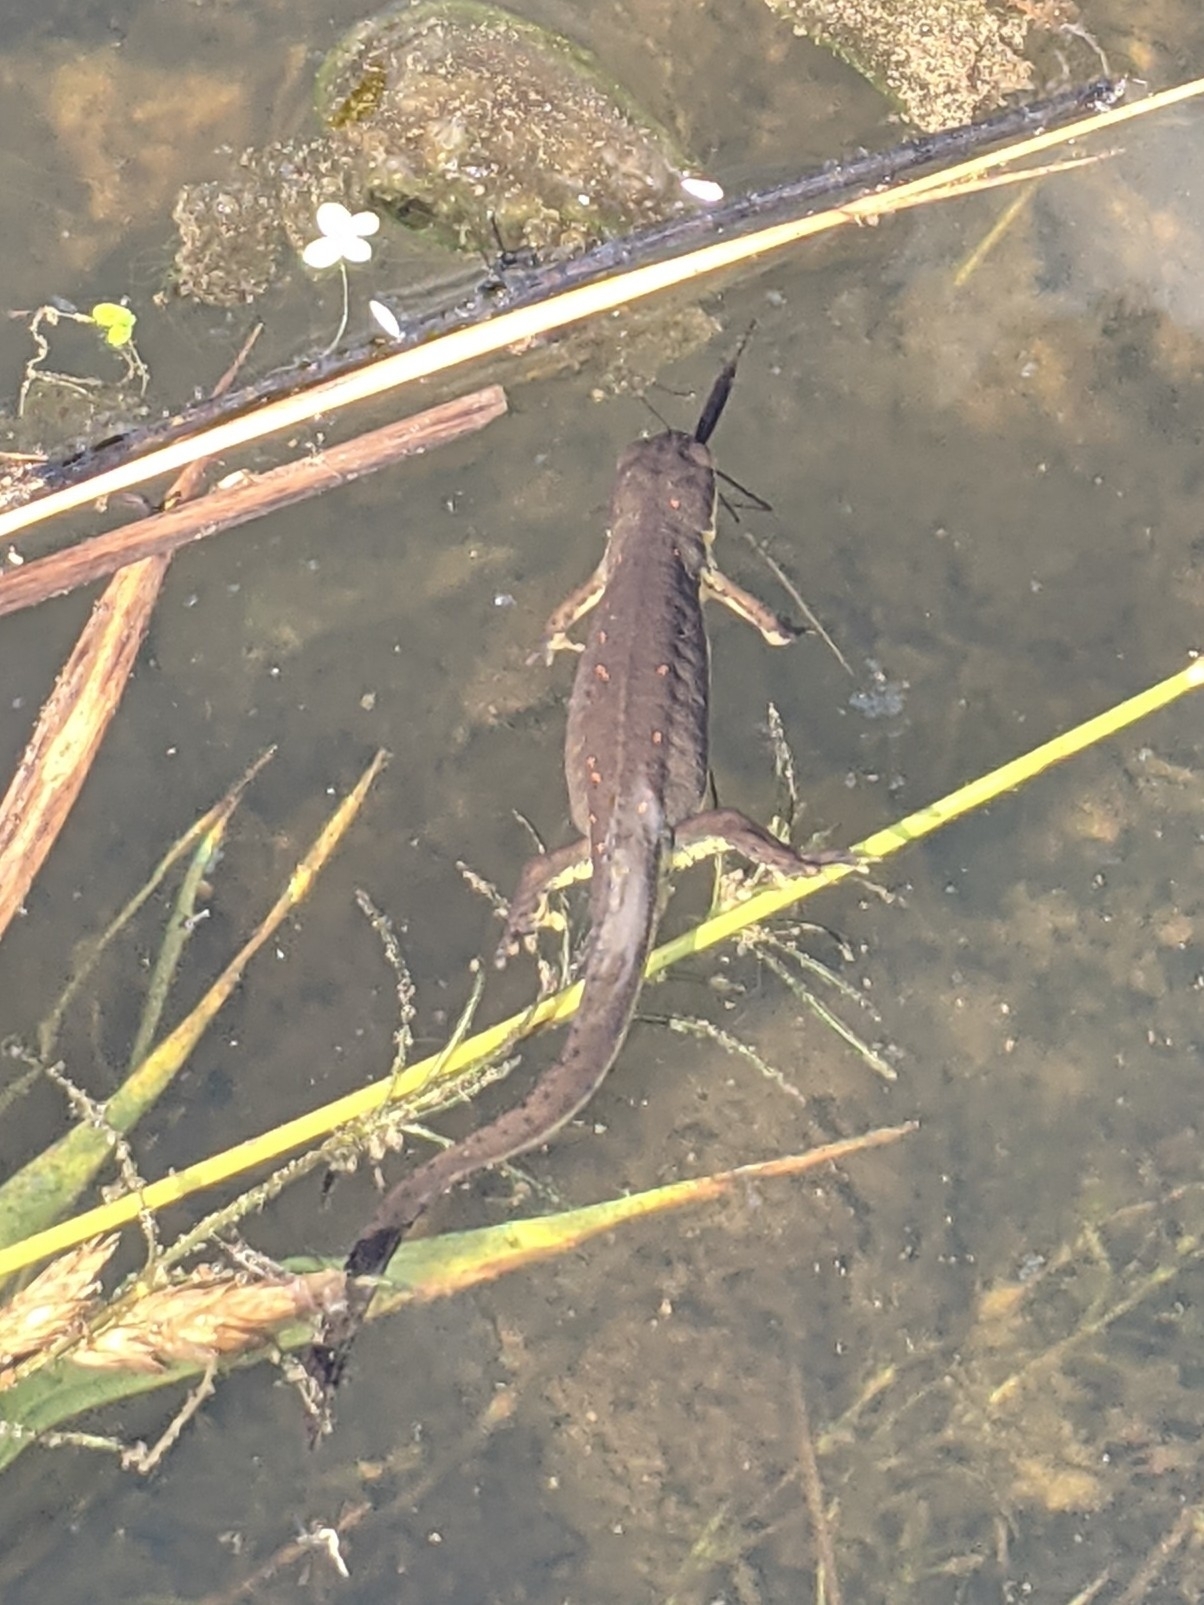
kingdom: Animalia
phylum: Chordata
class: Amphibia
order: Caudata
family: Salamandridae
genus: Notophthalmus
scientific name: Notophthalmus viridescens
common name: Eastern newt
